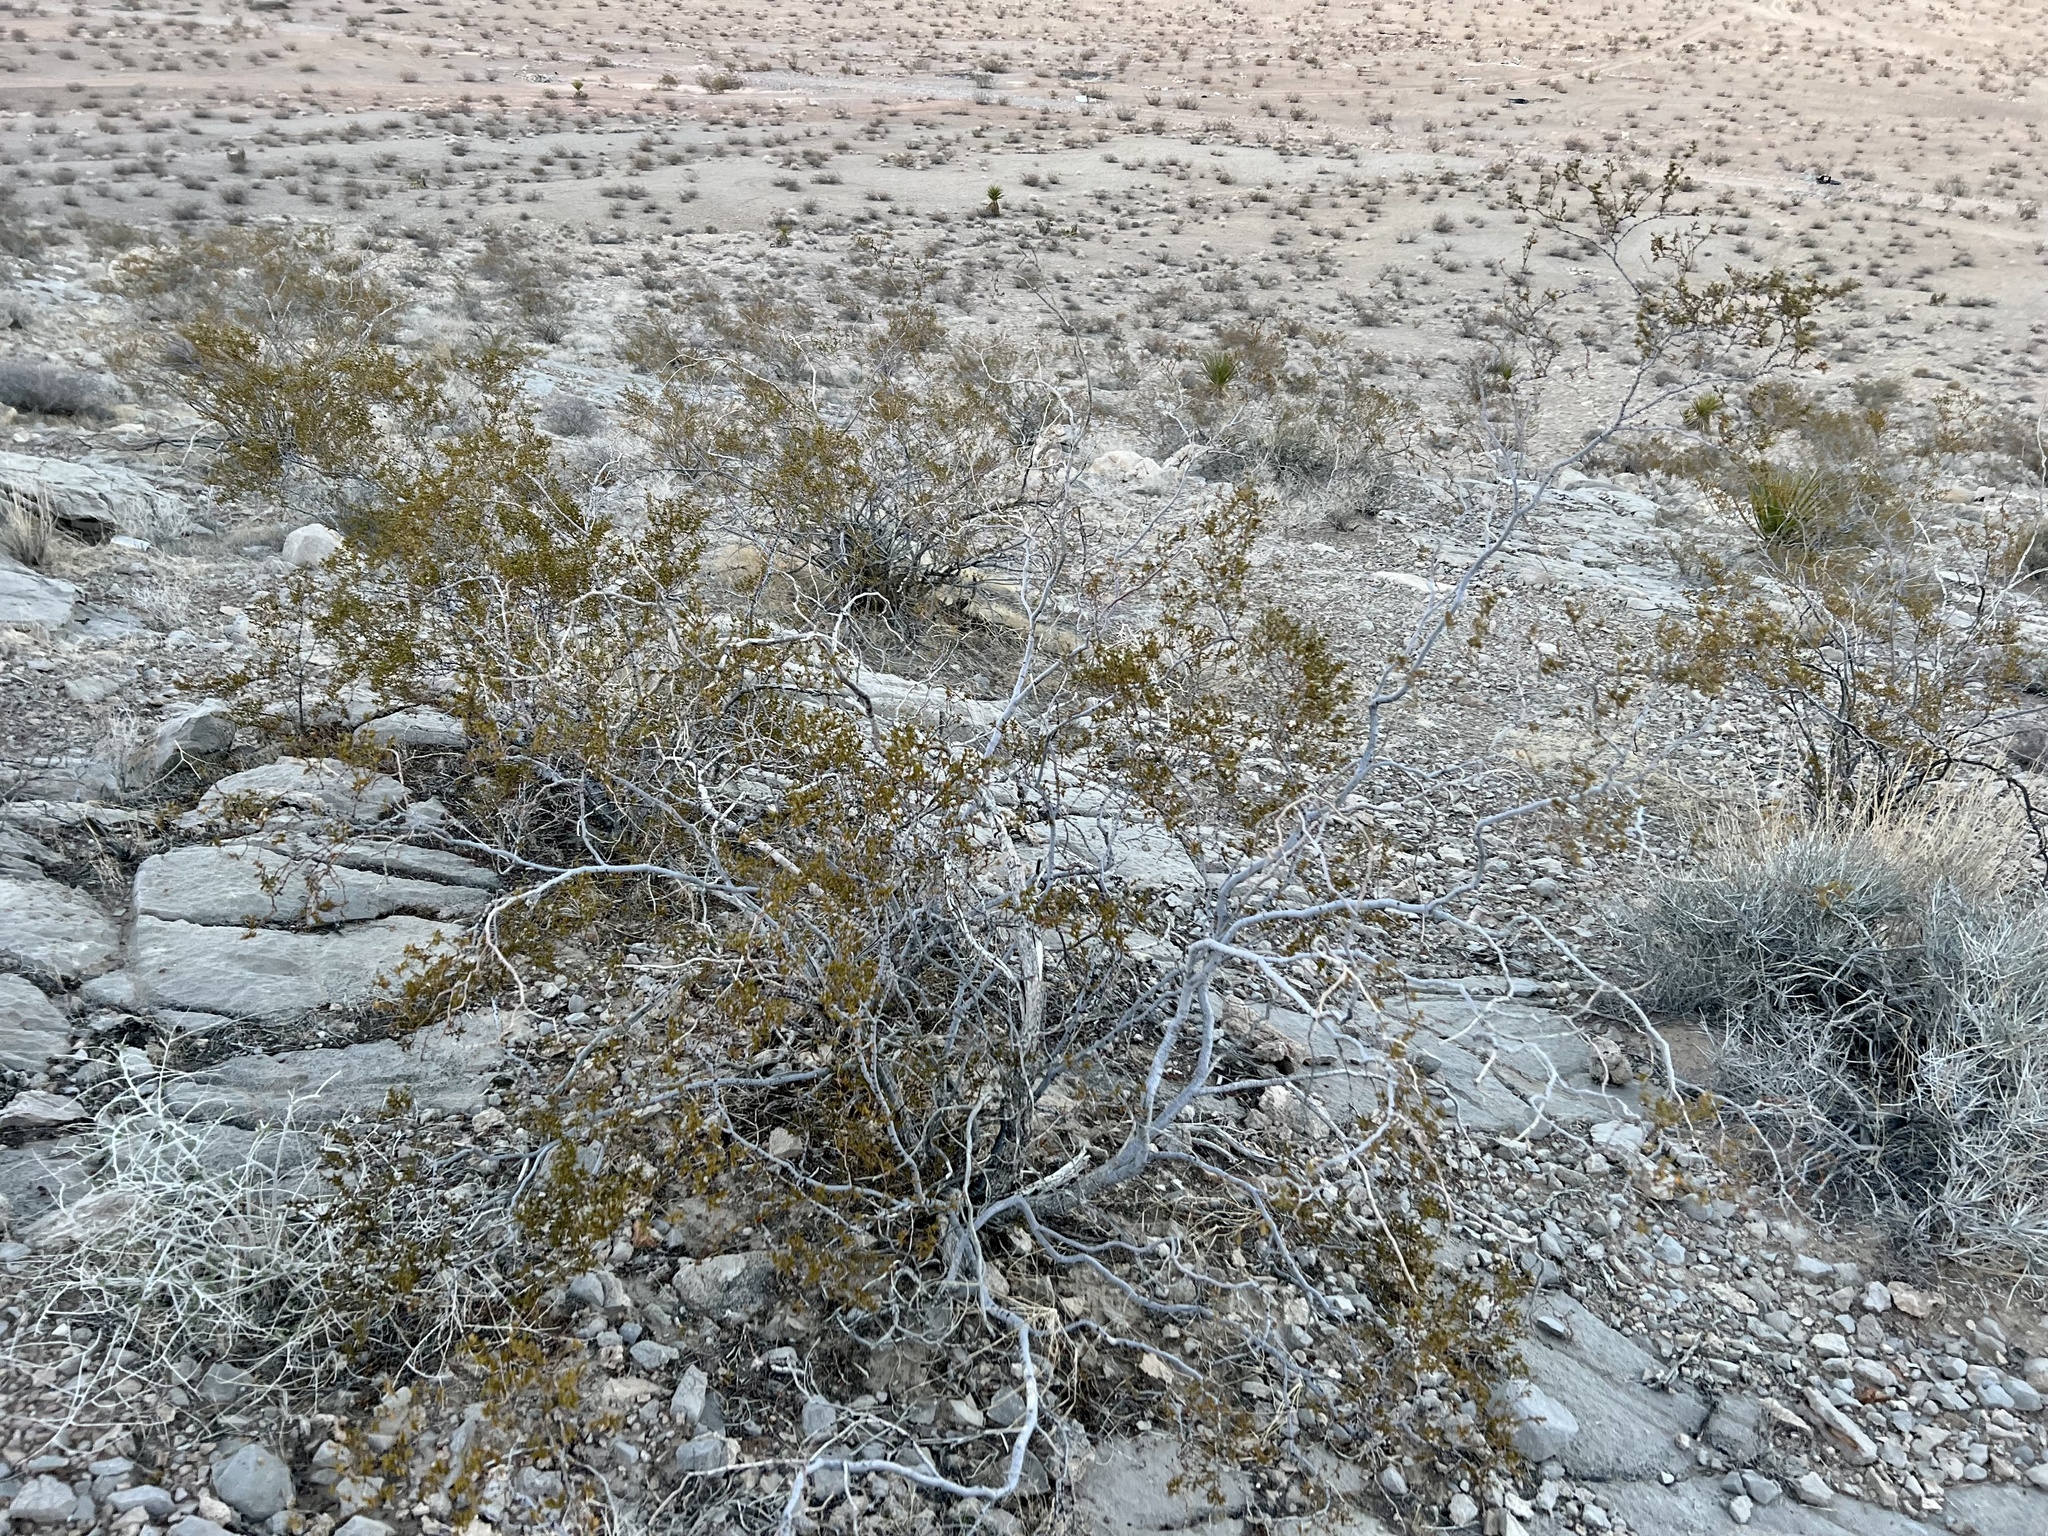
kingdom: Plantae
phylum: Tracheophyta
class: Magnoliopsida
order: Zygophyllales
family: Zygophyllaceae
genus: Larrea
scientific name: Larrea tridentata
